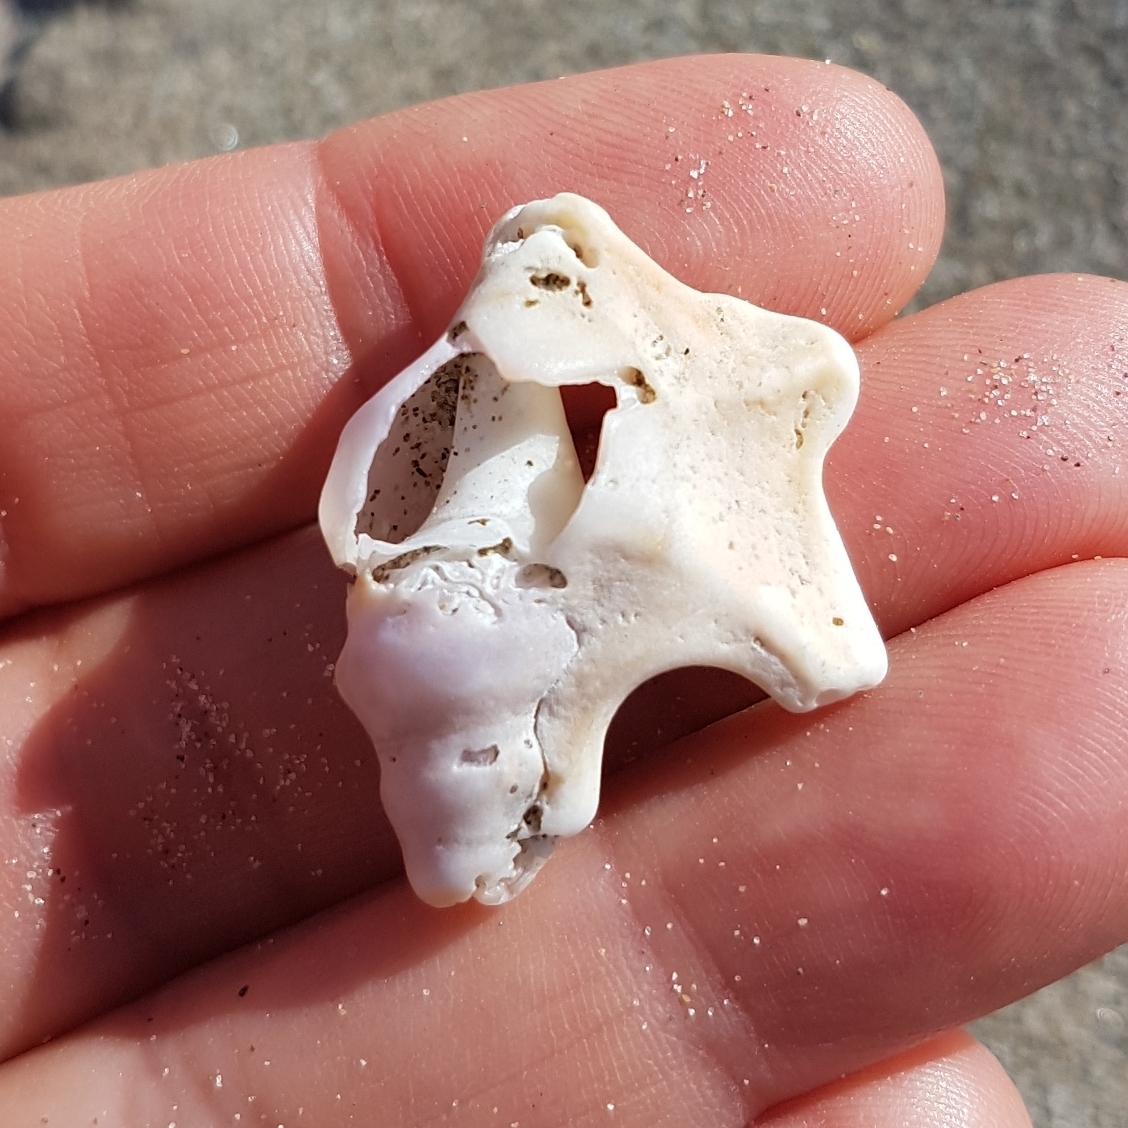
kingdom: Animalia
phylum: Mollusca
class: Gastropoda
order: Littorinimorpha
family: Aporrhaidae
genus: Aporrhais
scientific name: Aporrhais pespelecani
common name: Common pelican’s foot
